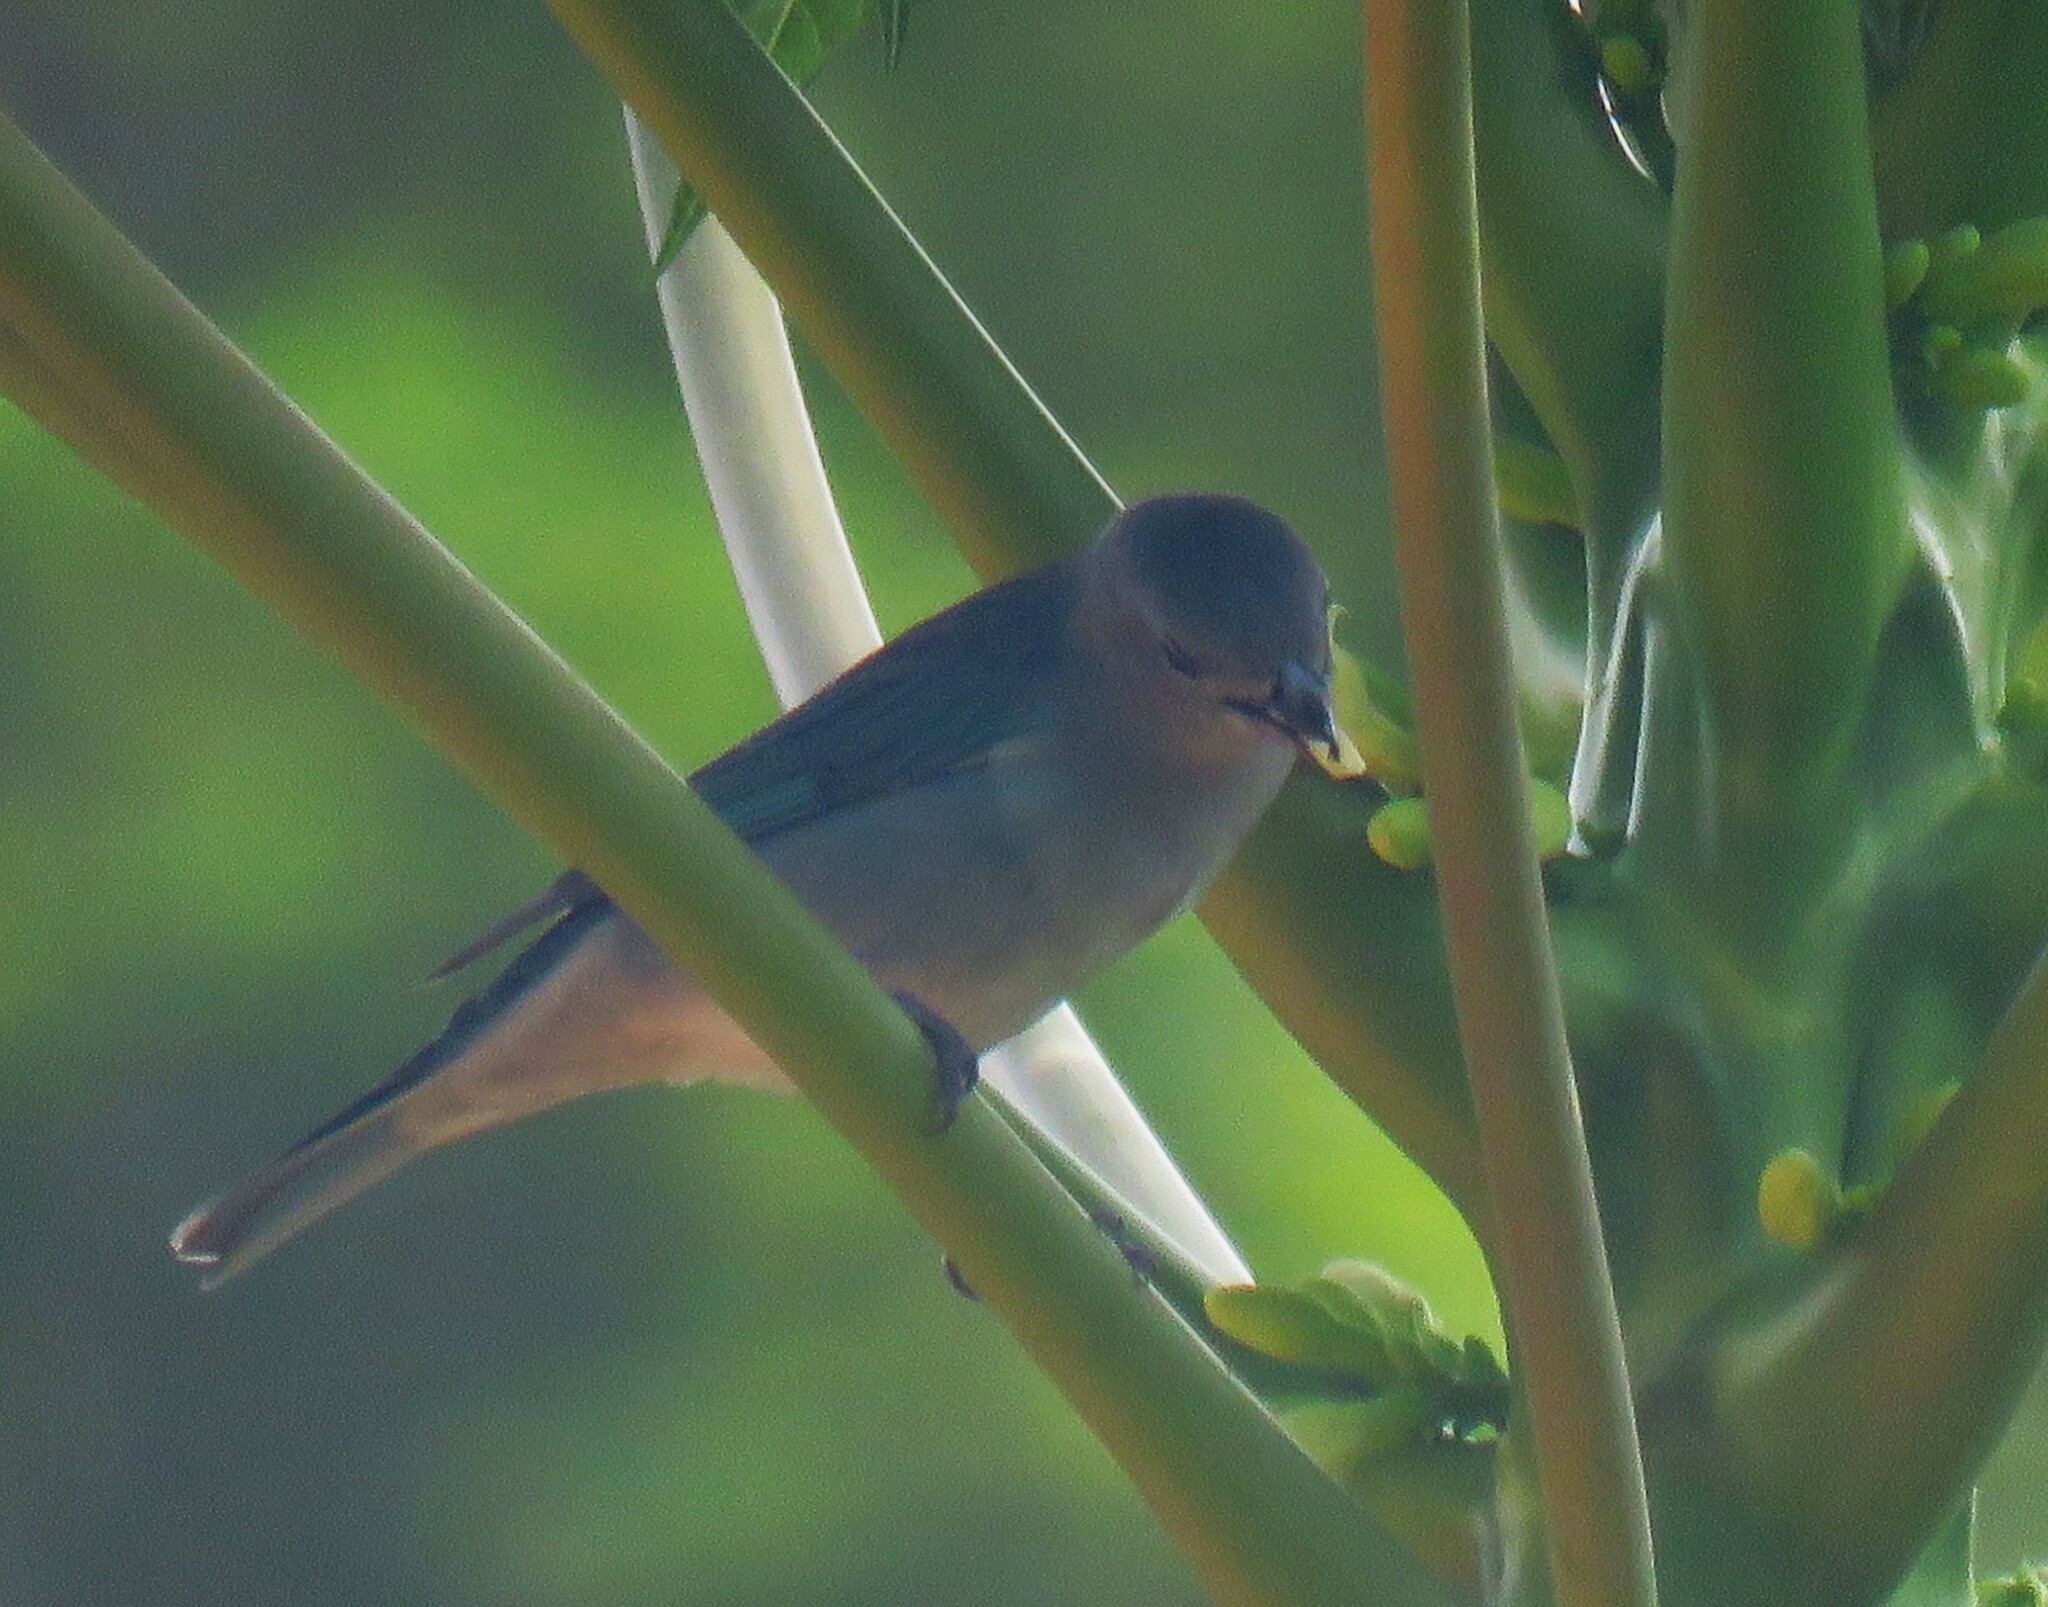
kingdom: Animalia
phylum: Chordata
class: Aves
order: Passeriformes
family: Thraupidae
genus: Thraupis
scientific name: Thraupis sayaca
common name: Sayaca tanager
